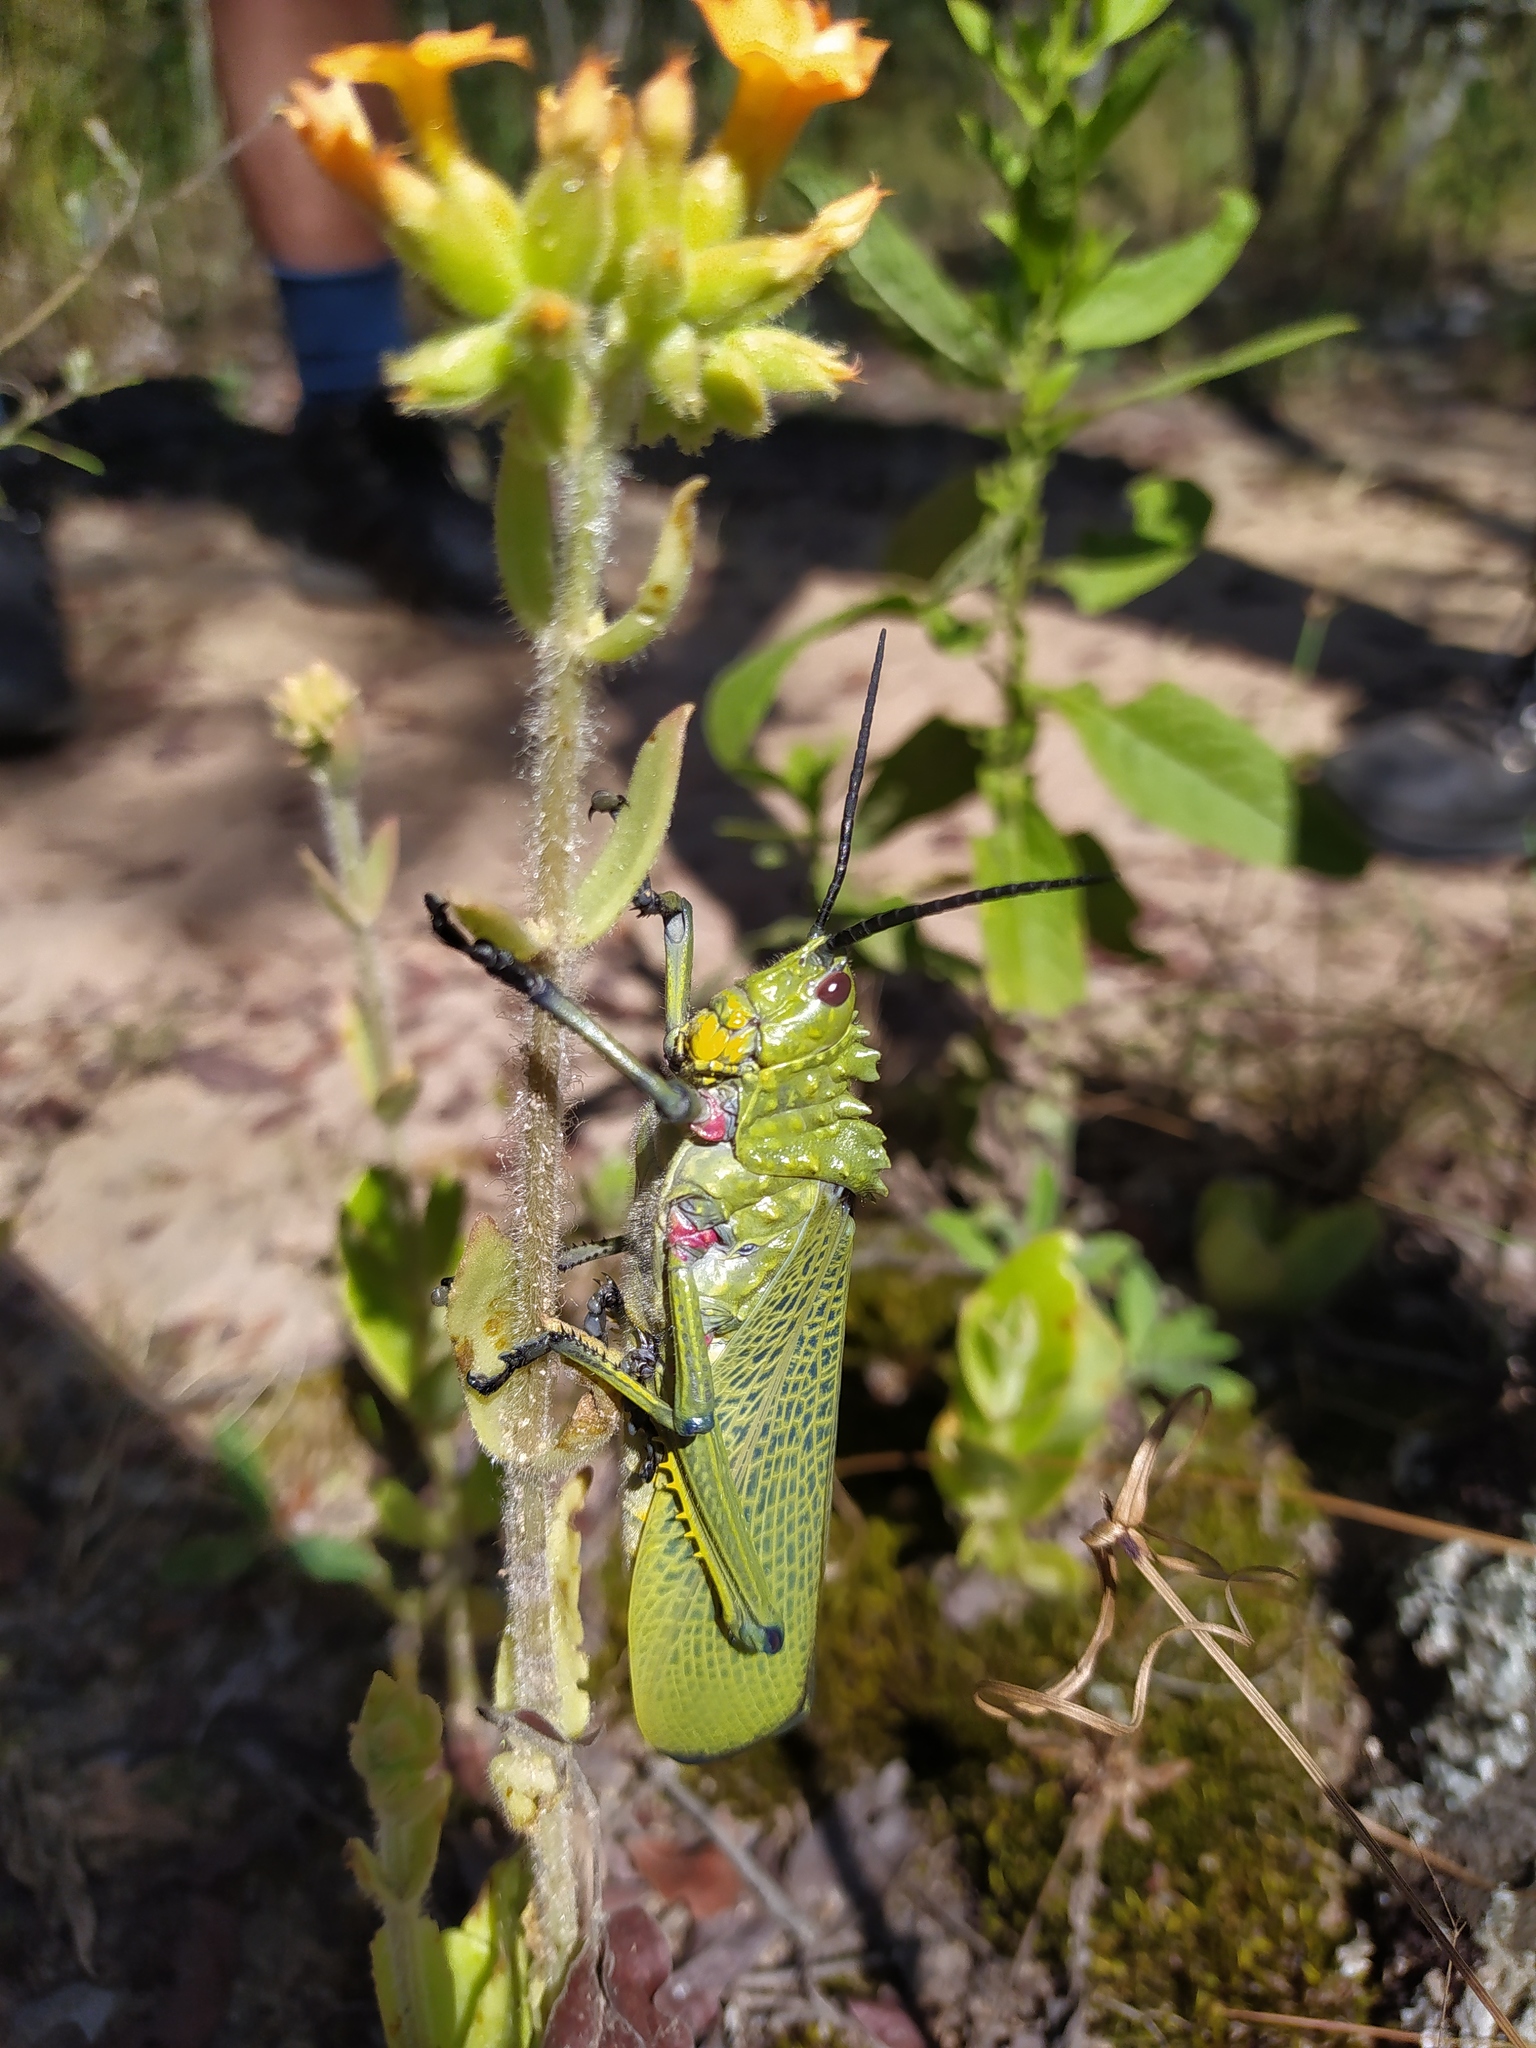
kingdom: Animalia
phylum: Arthropoda
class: Insecta
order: Orthoptera
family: Pyrgomorphidae
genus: Phymateus
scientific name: Phymateus viridipes
